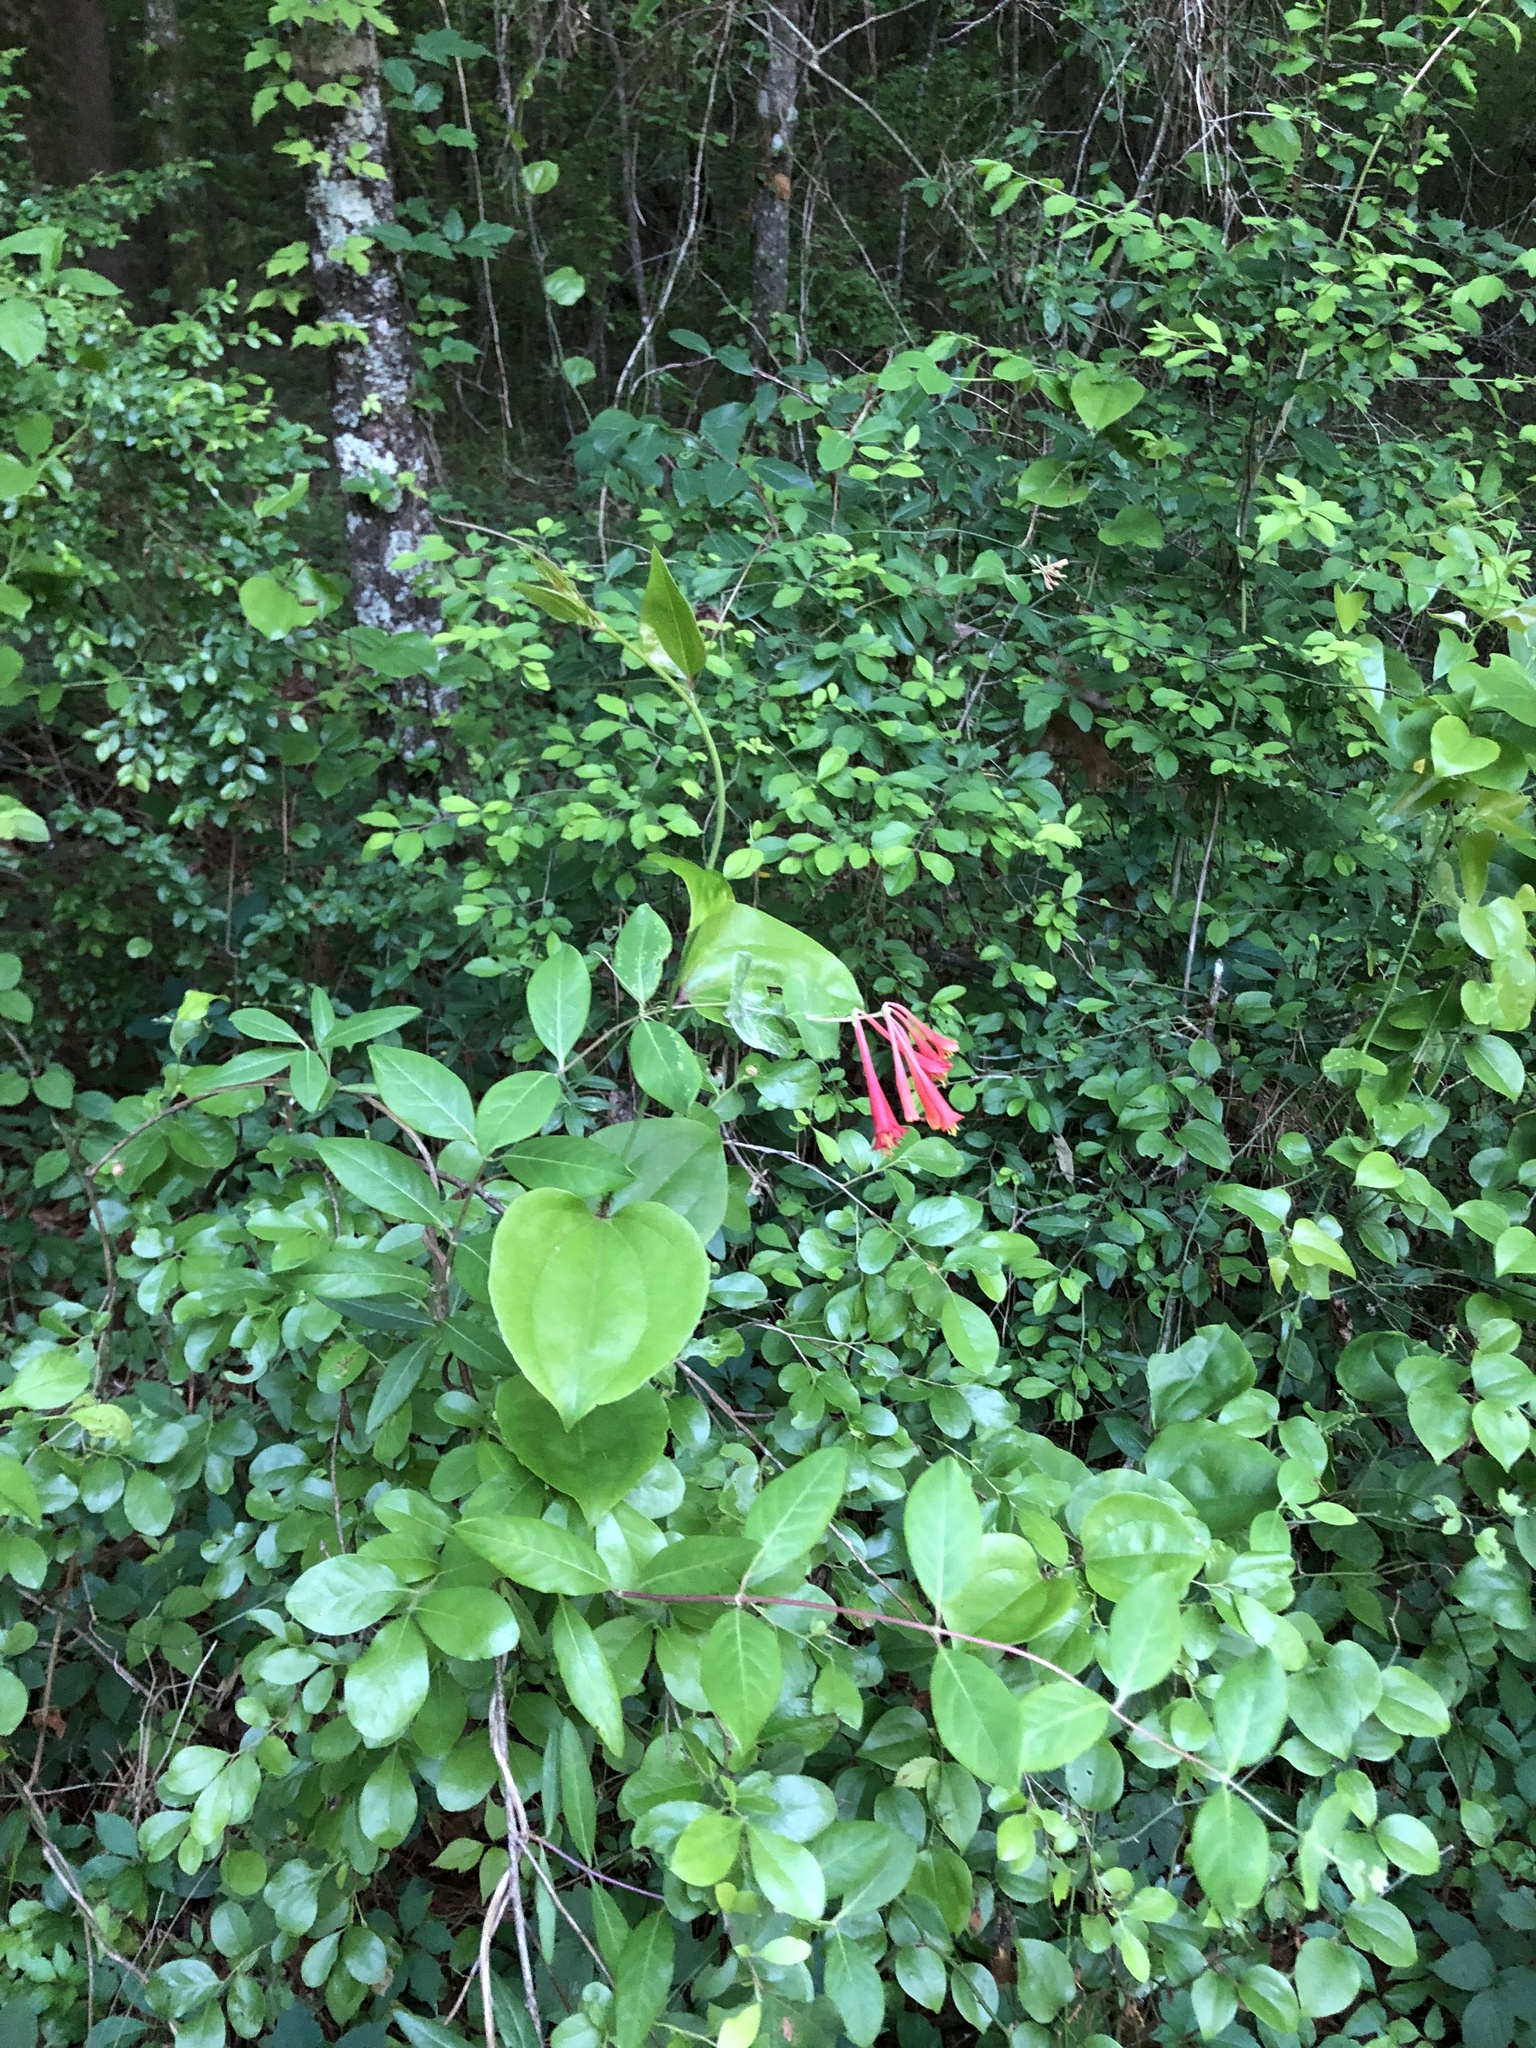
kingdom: Plantae
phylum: Tracheophyta
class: Magnoliopsida
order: Dipsacales
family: Caprifoliaceae
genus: Lonicera
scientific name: Lonicera sempervirens
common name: Coral honeysuckle
